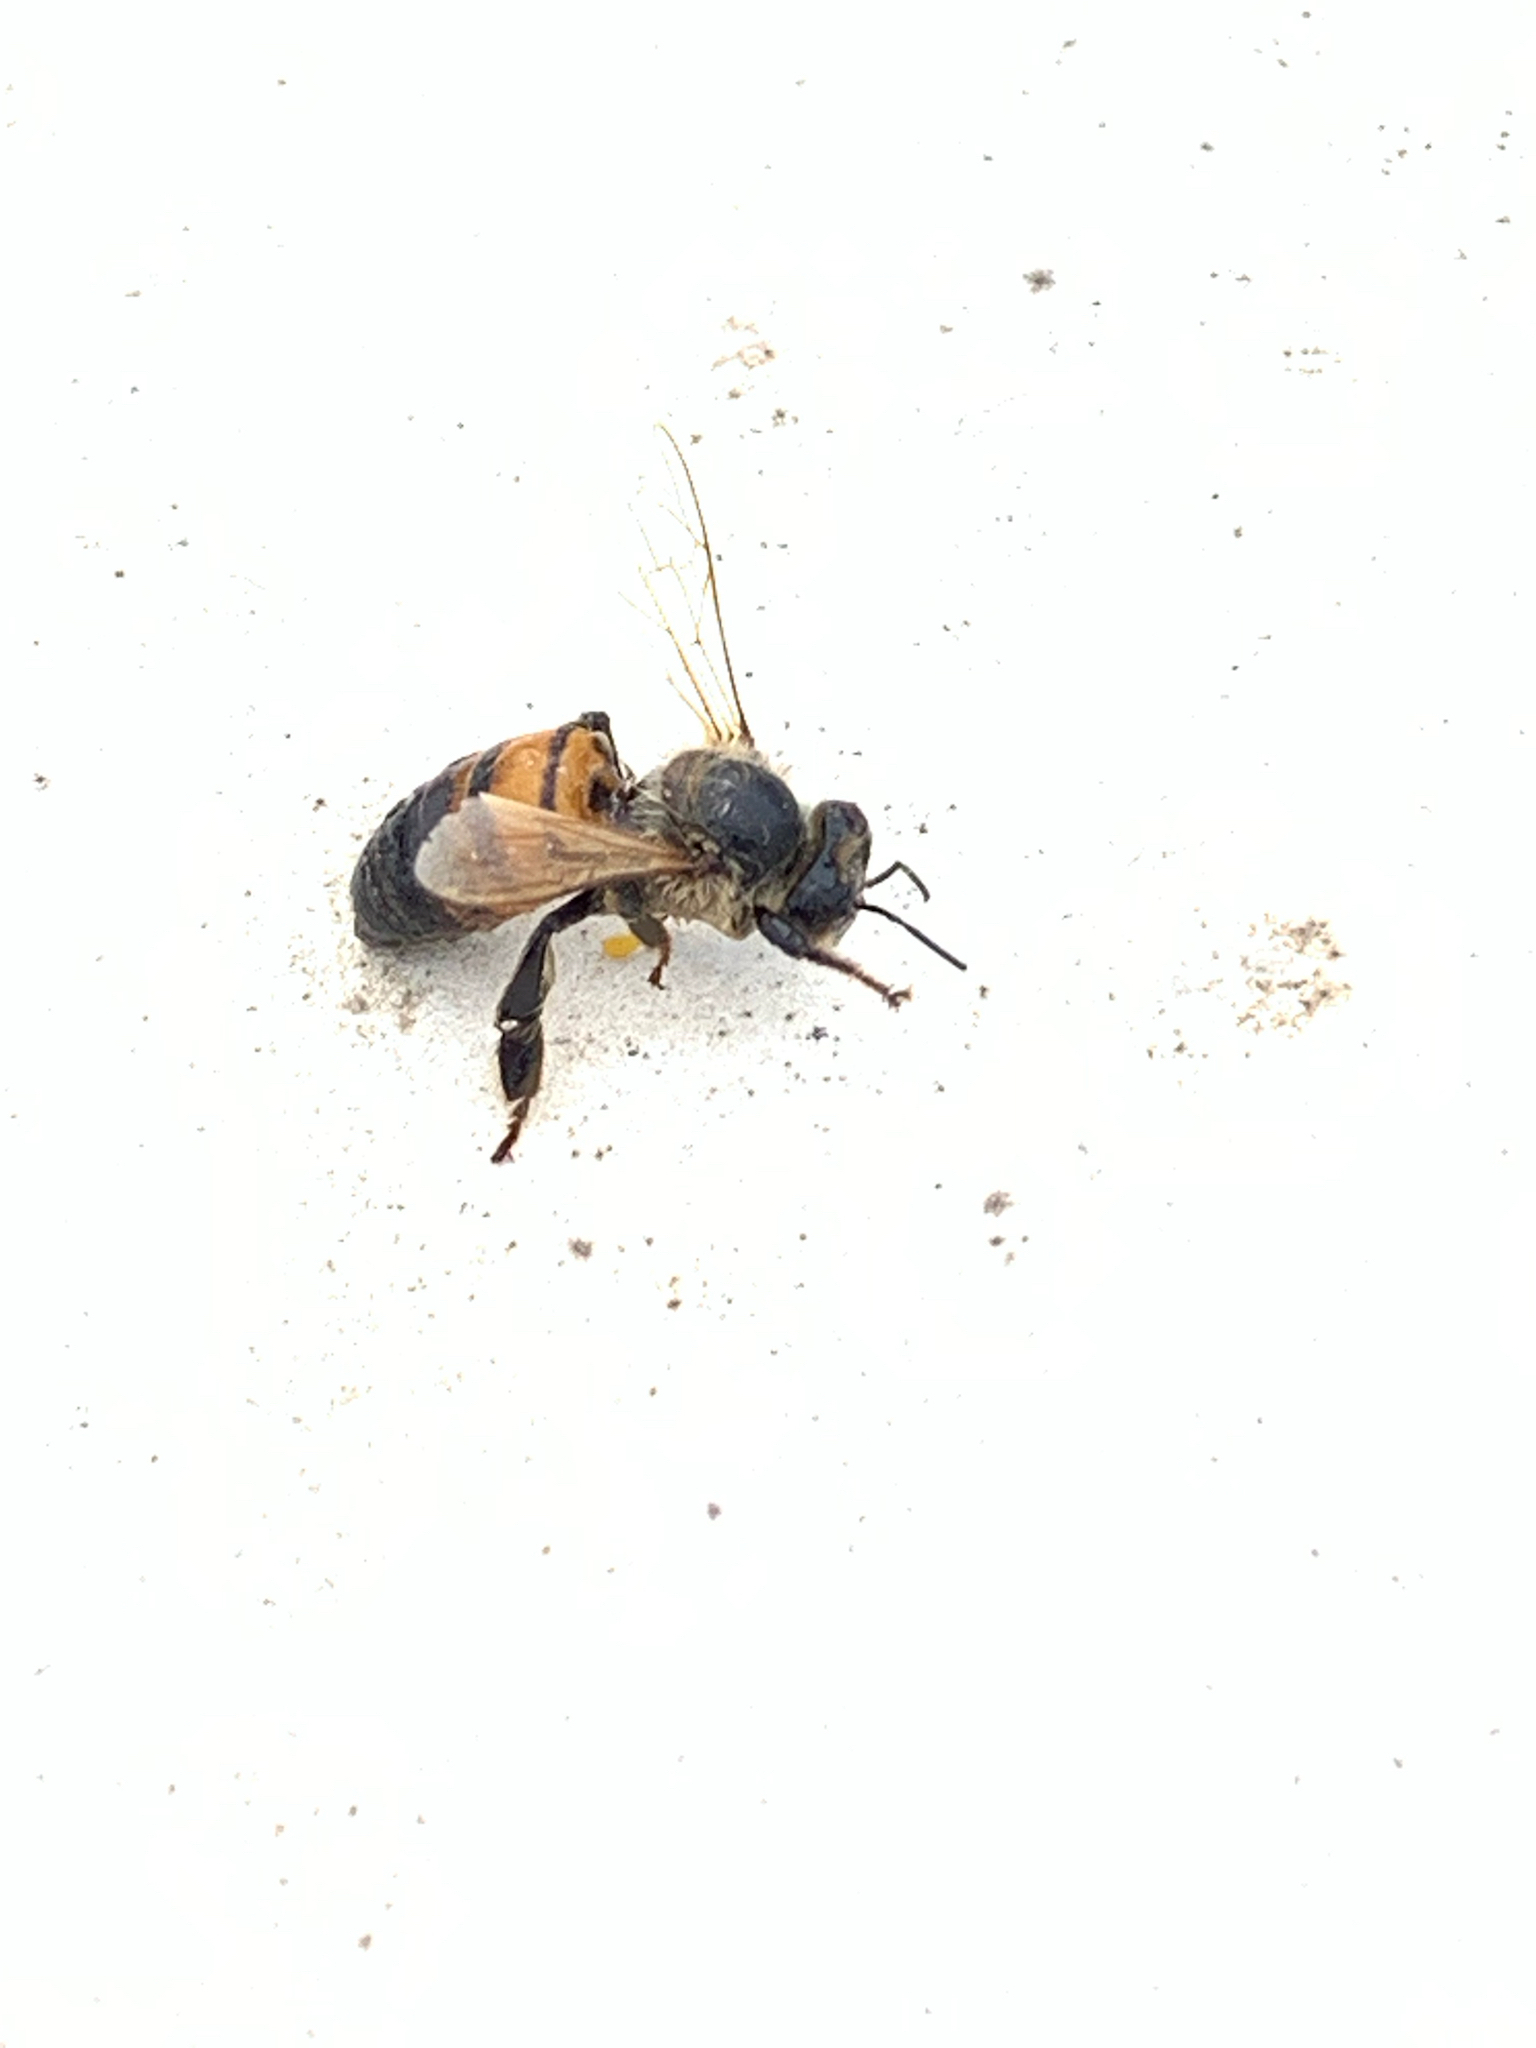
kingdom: Animalia
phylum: Arthropoda
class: Insecta
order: Hymenoptera
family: Apidae
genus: Apis
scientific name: Apis mellifera
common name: Honey bee
